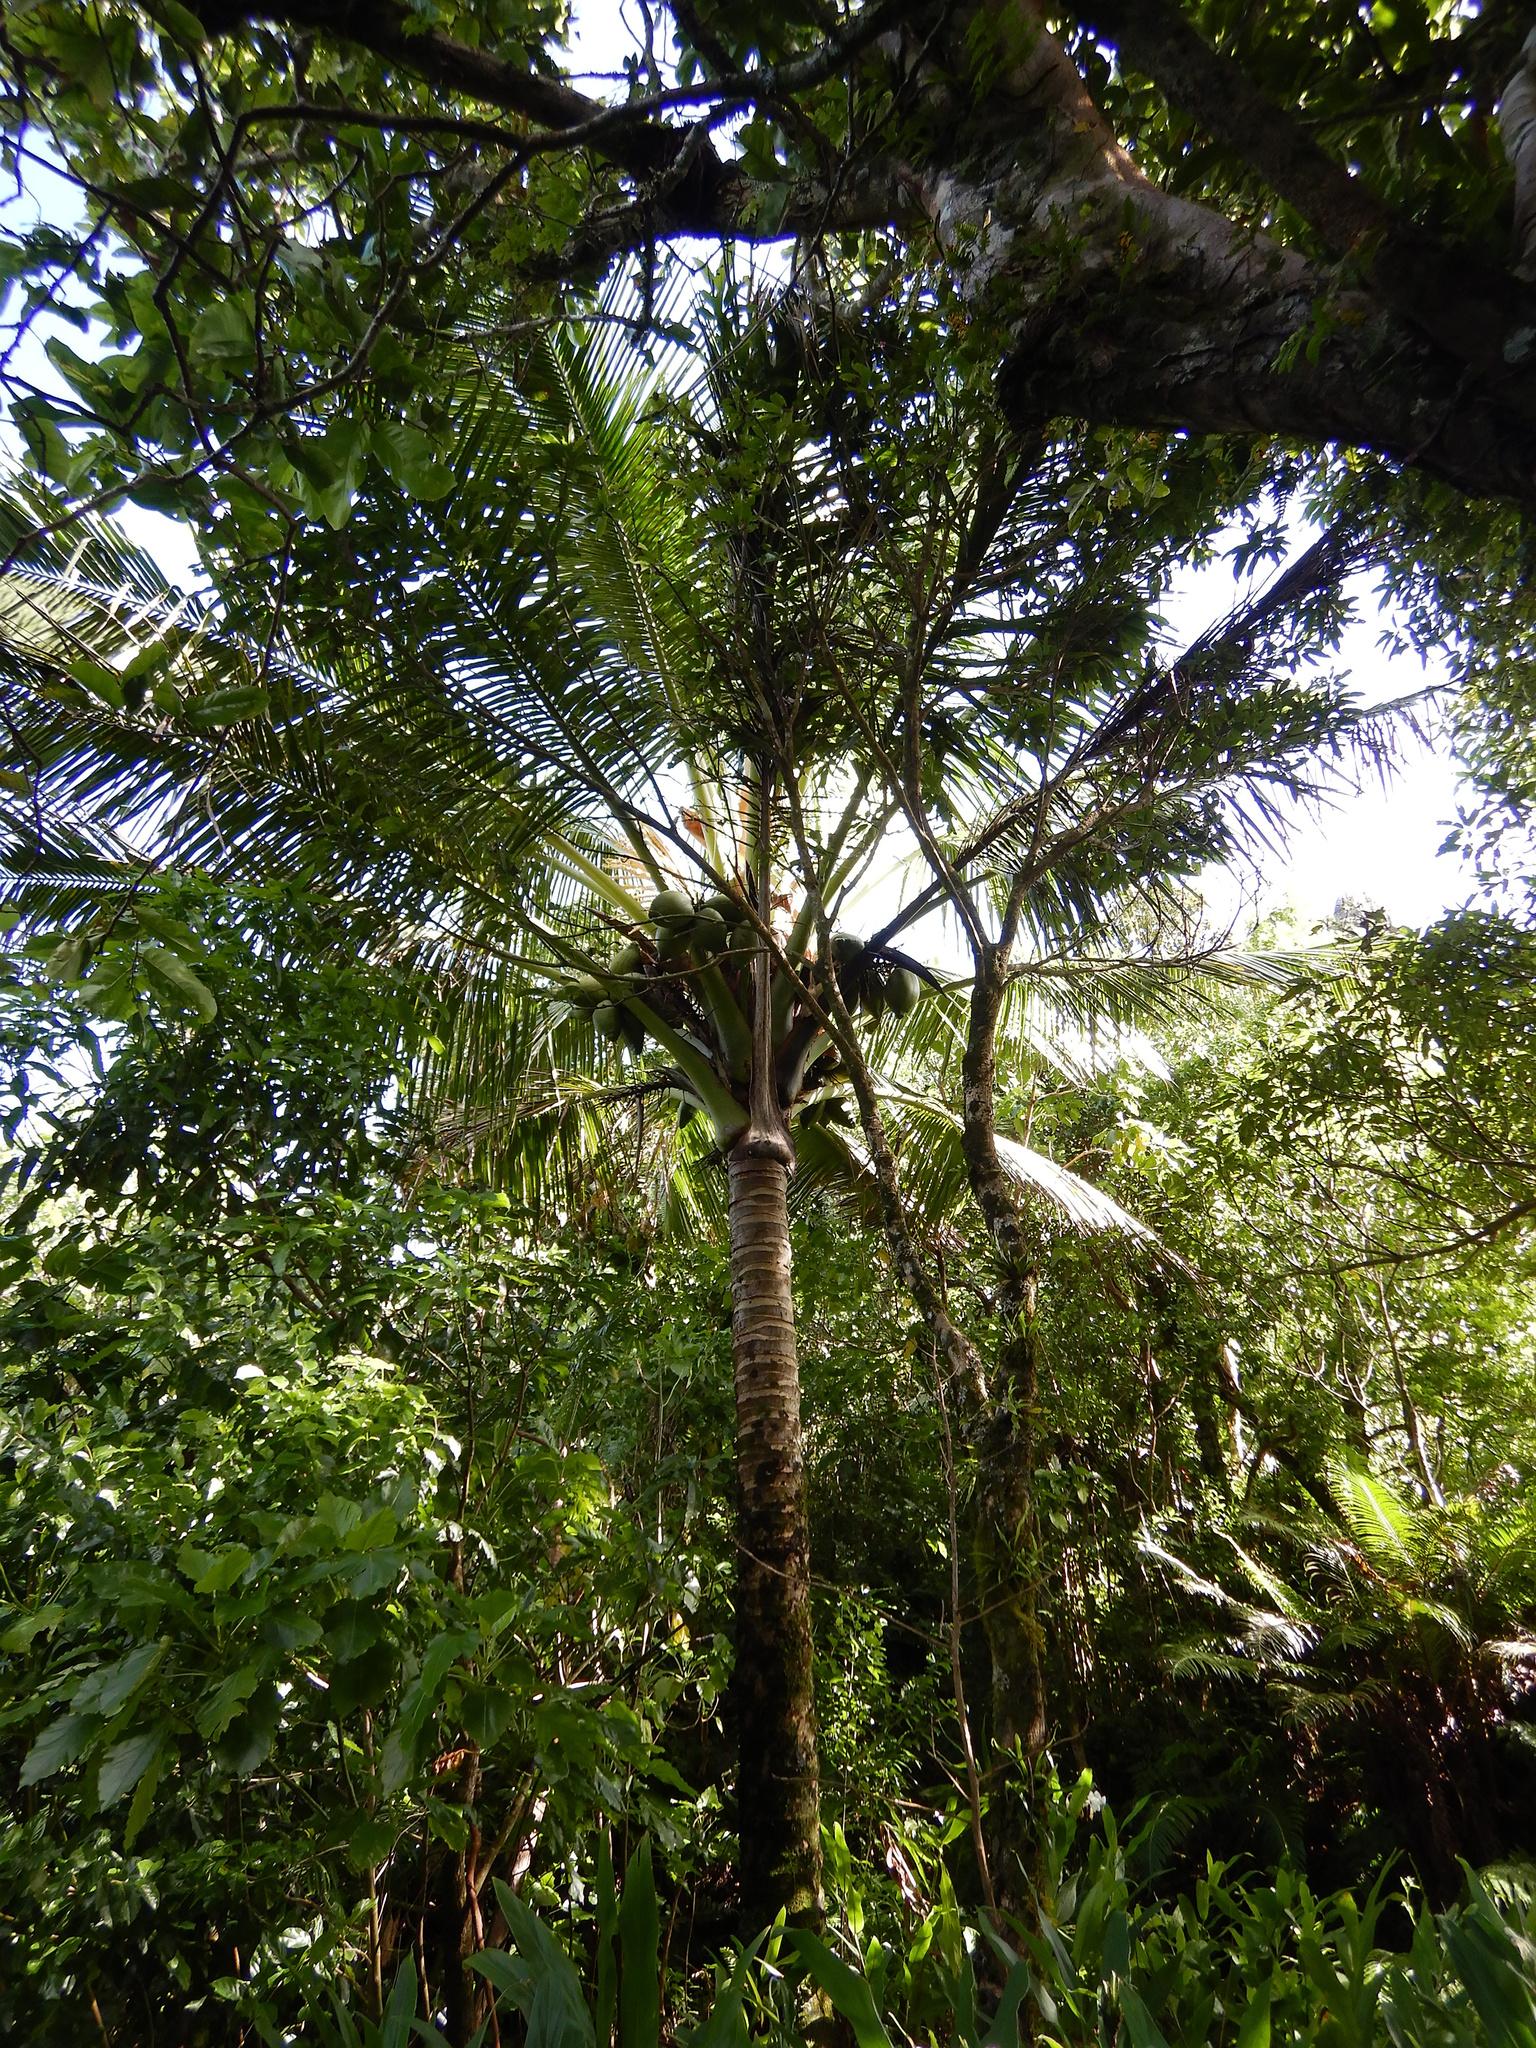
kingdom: Plantae
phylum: Tracheophyta
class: Liliopsida
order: Arecales
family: Arecaceae
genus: Cocos
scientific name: Cocos nucifera
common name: Coconut palm
